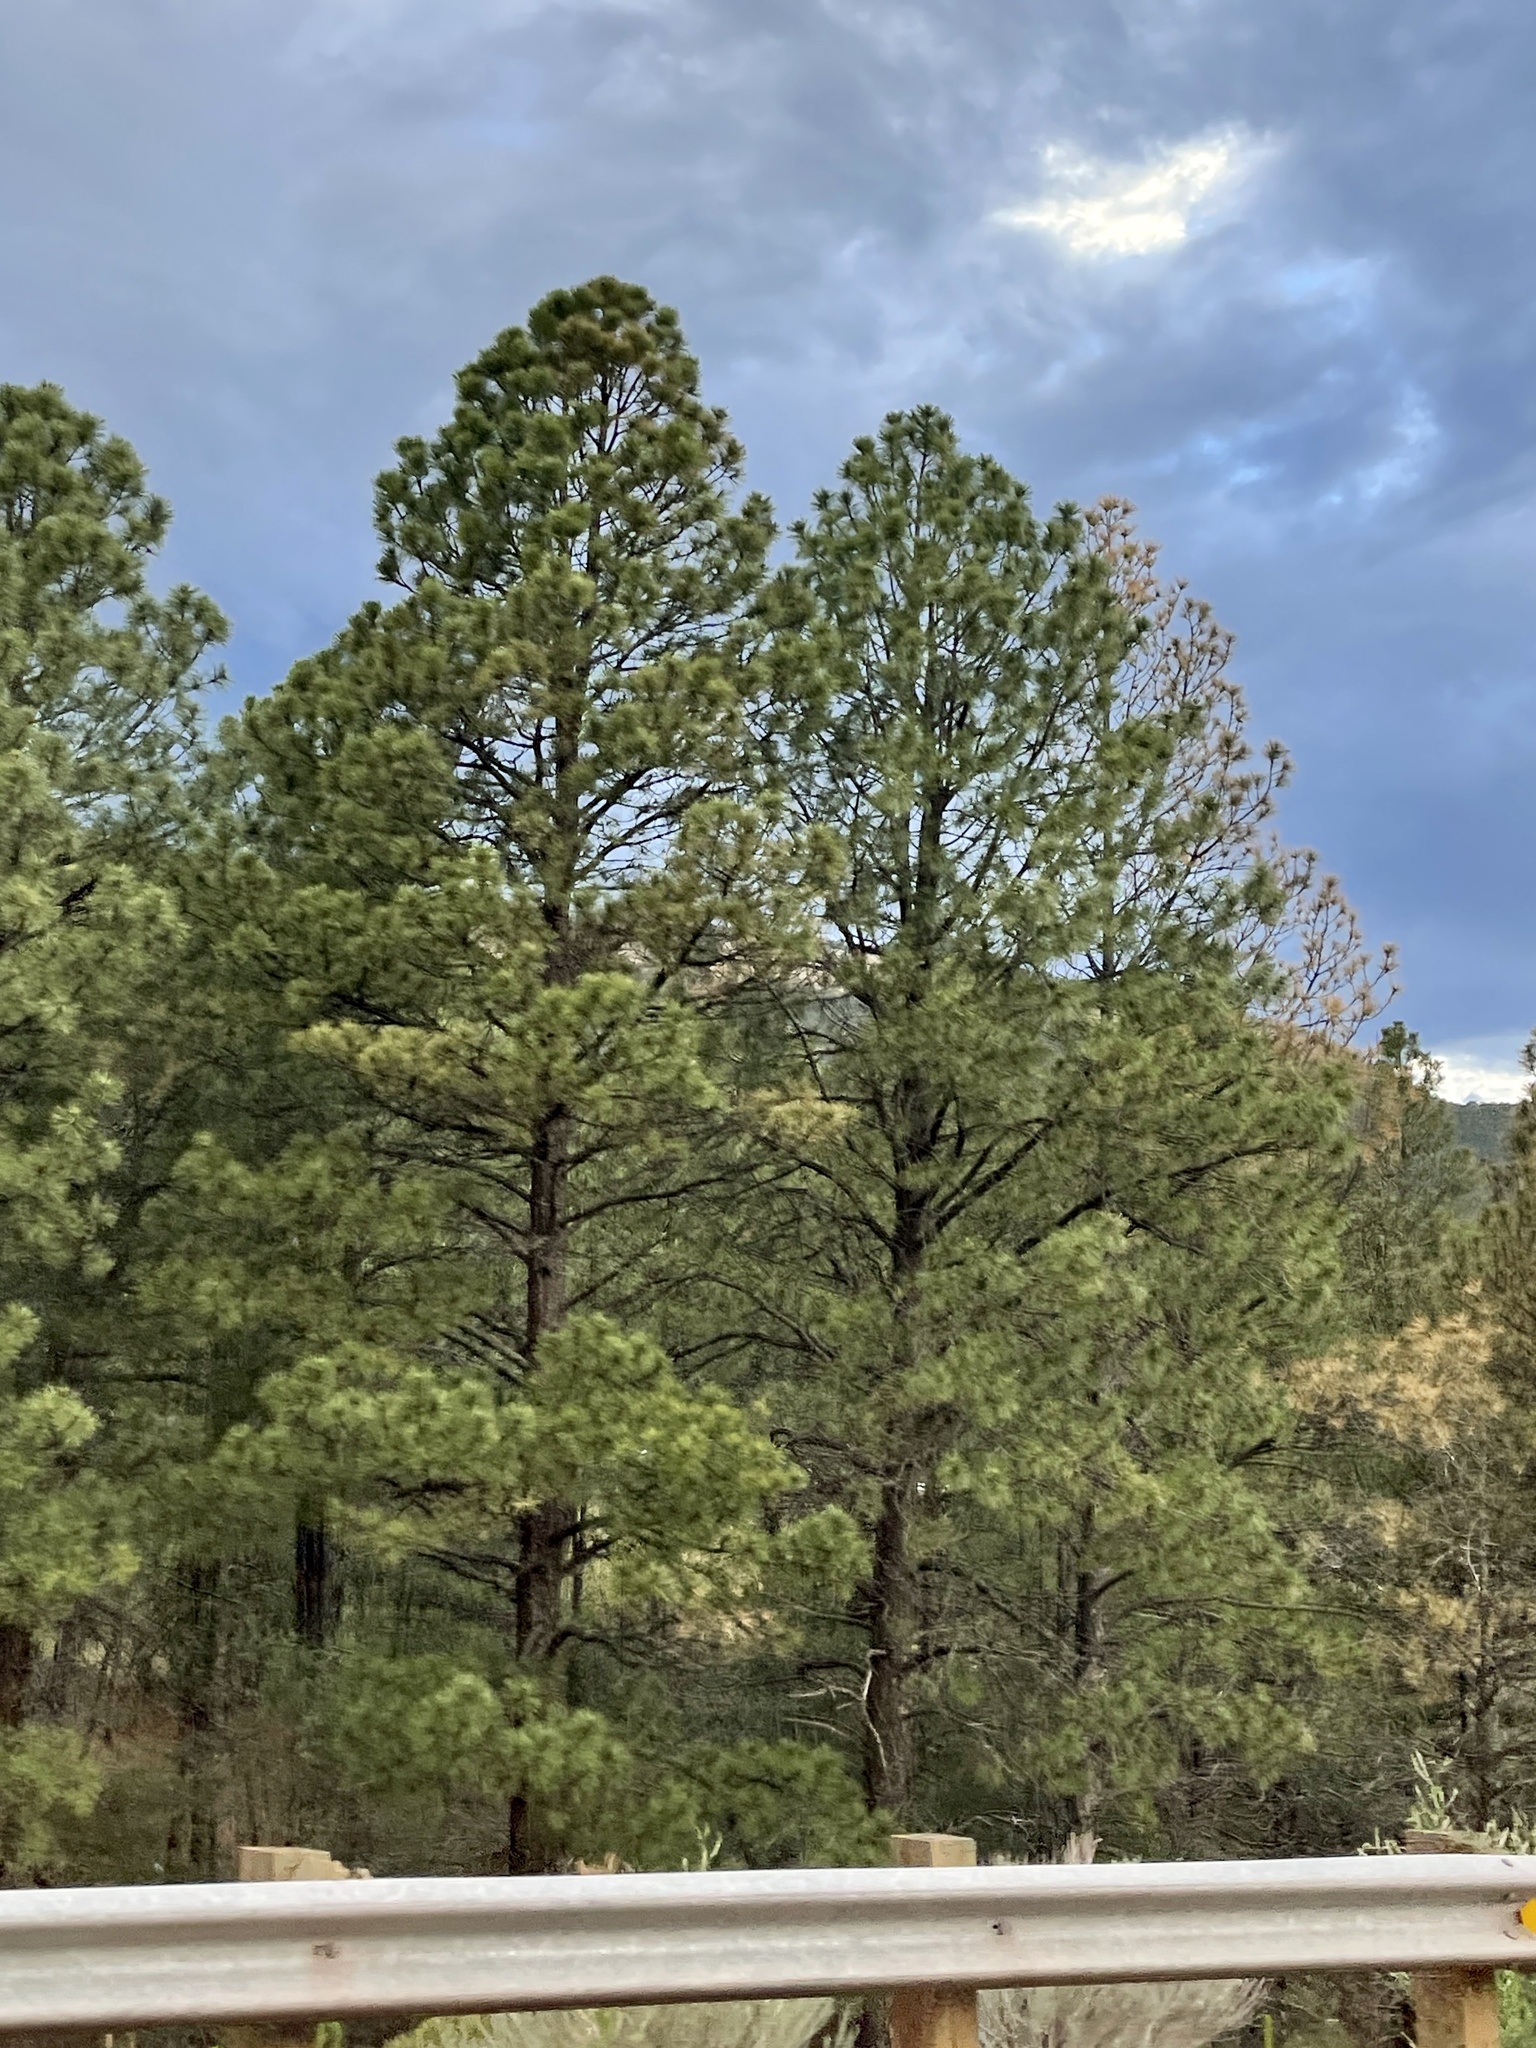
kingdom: Plantae
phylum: Tracheophyta
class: Pinopsida
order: Pinales
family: Pinaceae
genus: Pinus
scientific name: Pinus ponderosa
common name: Western yellow-pine
